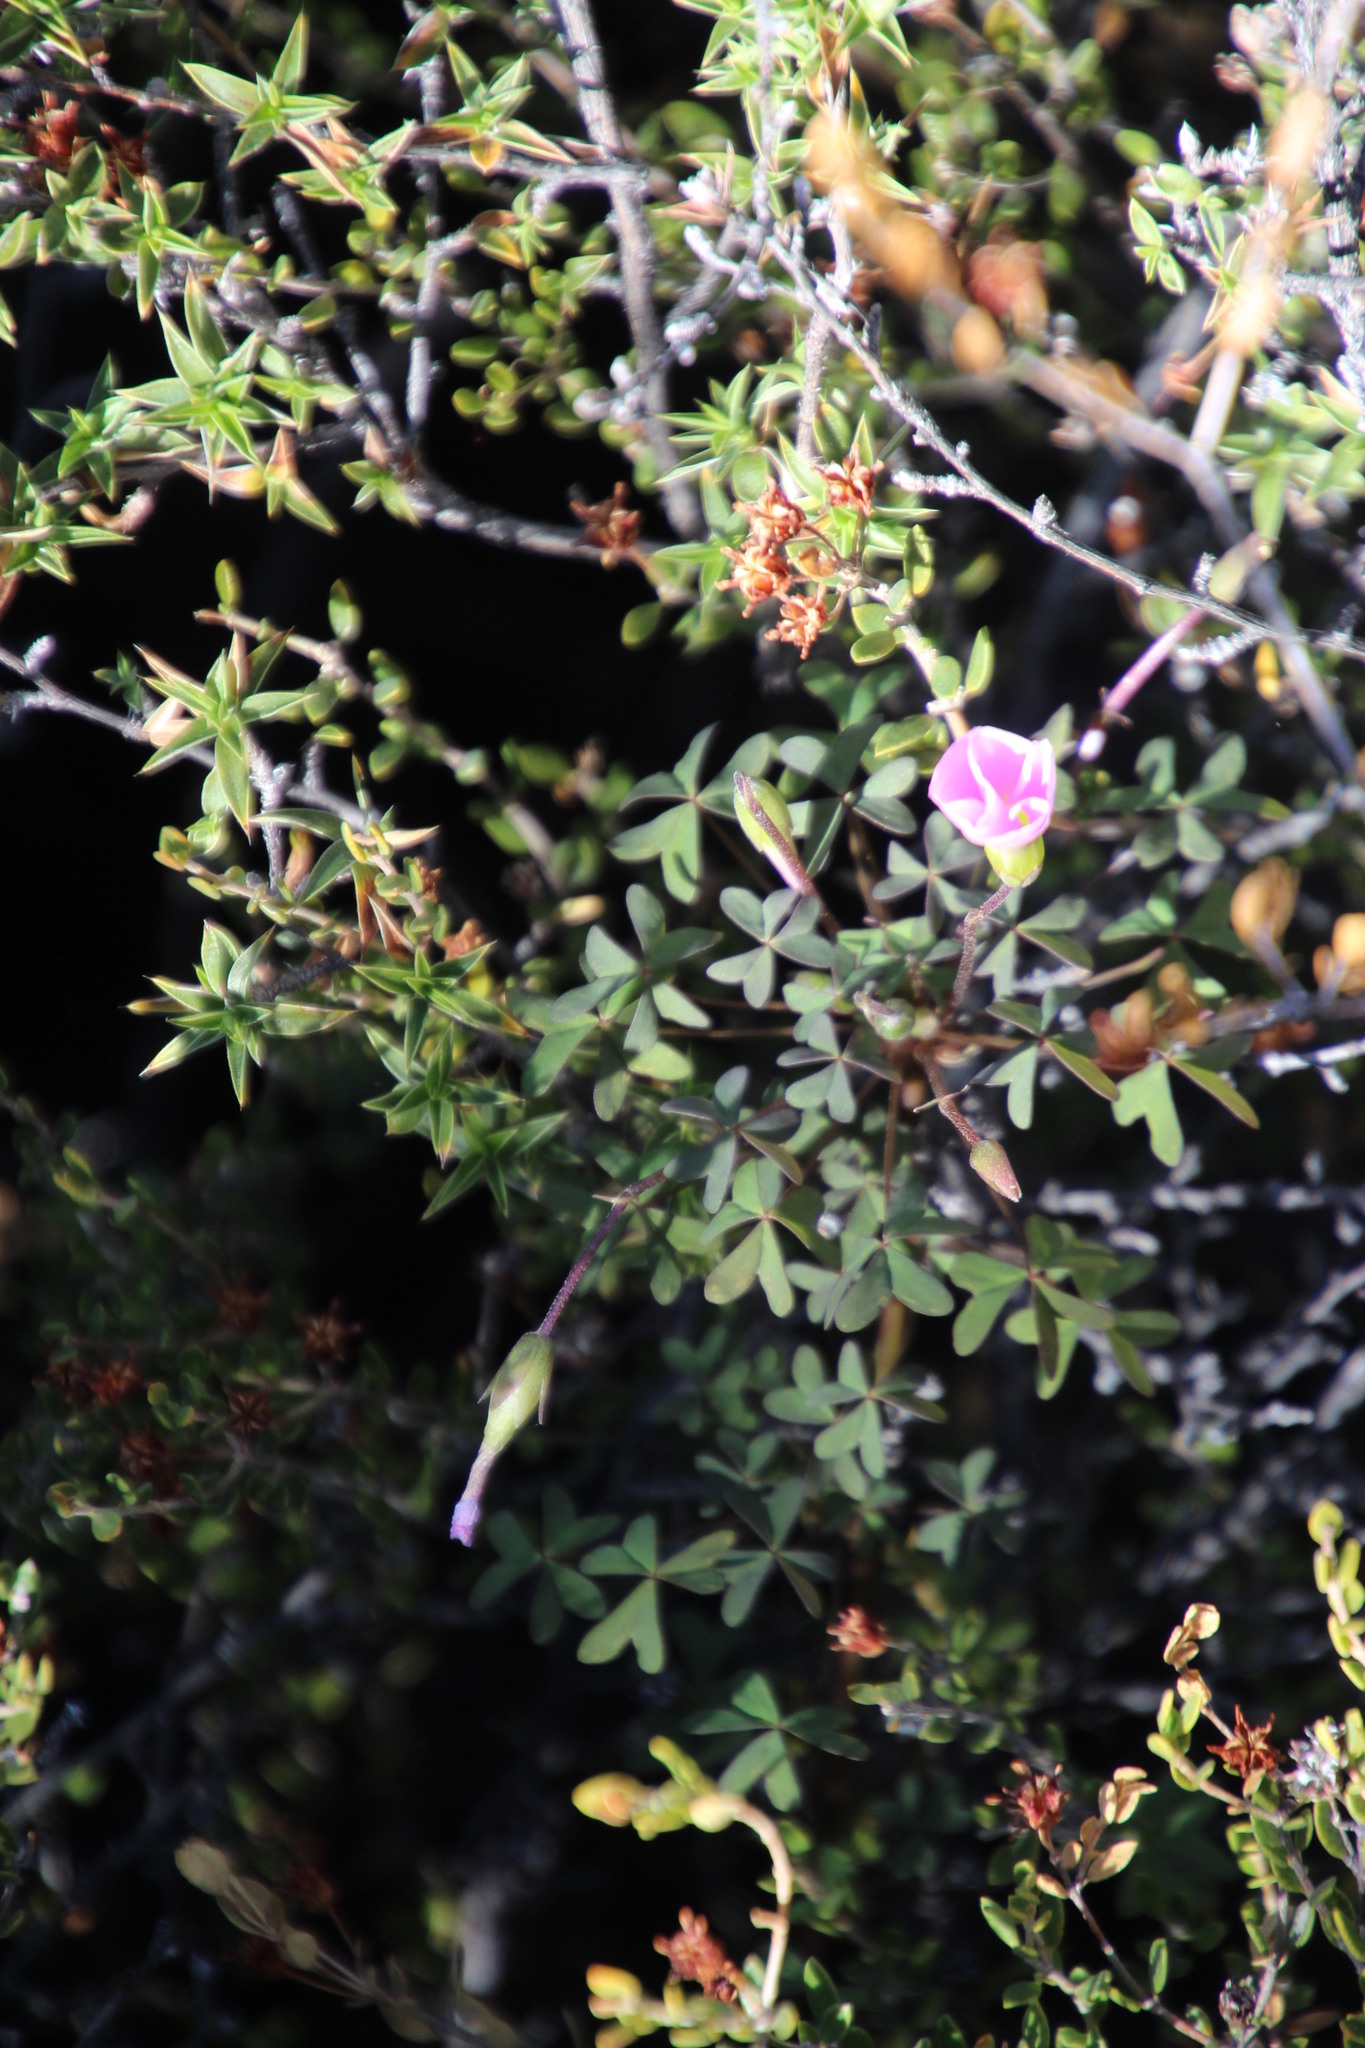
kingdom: Plantae
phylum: Tracheophyta
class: Magnoliopsida
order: Oxalidales
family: Oxalidaceae
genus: Oxalis
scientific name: Oxalis comosa
